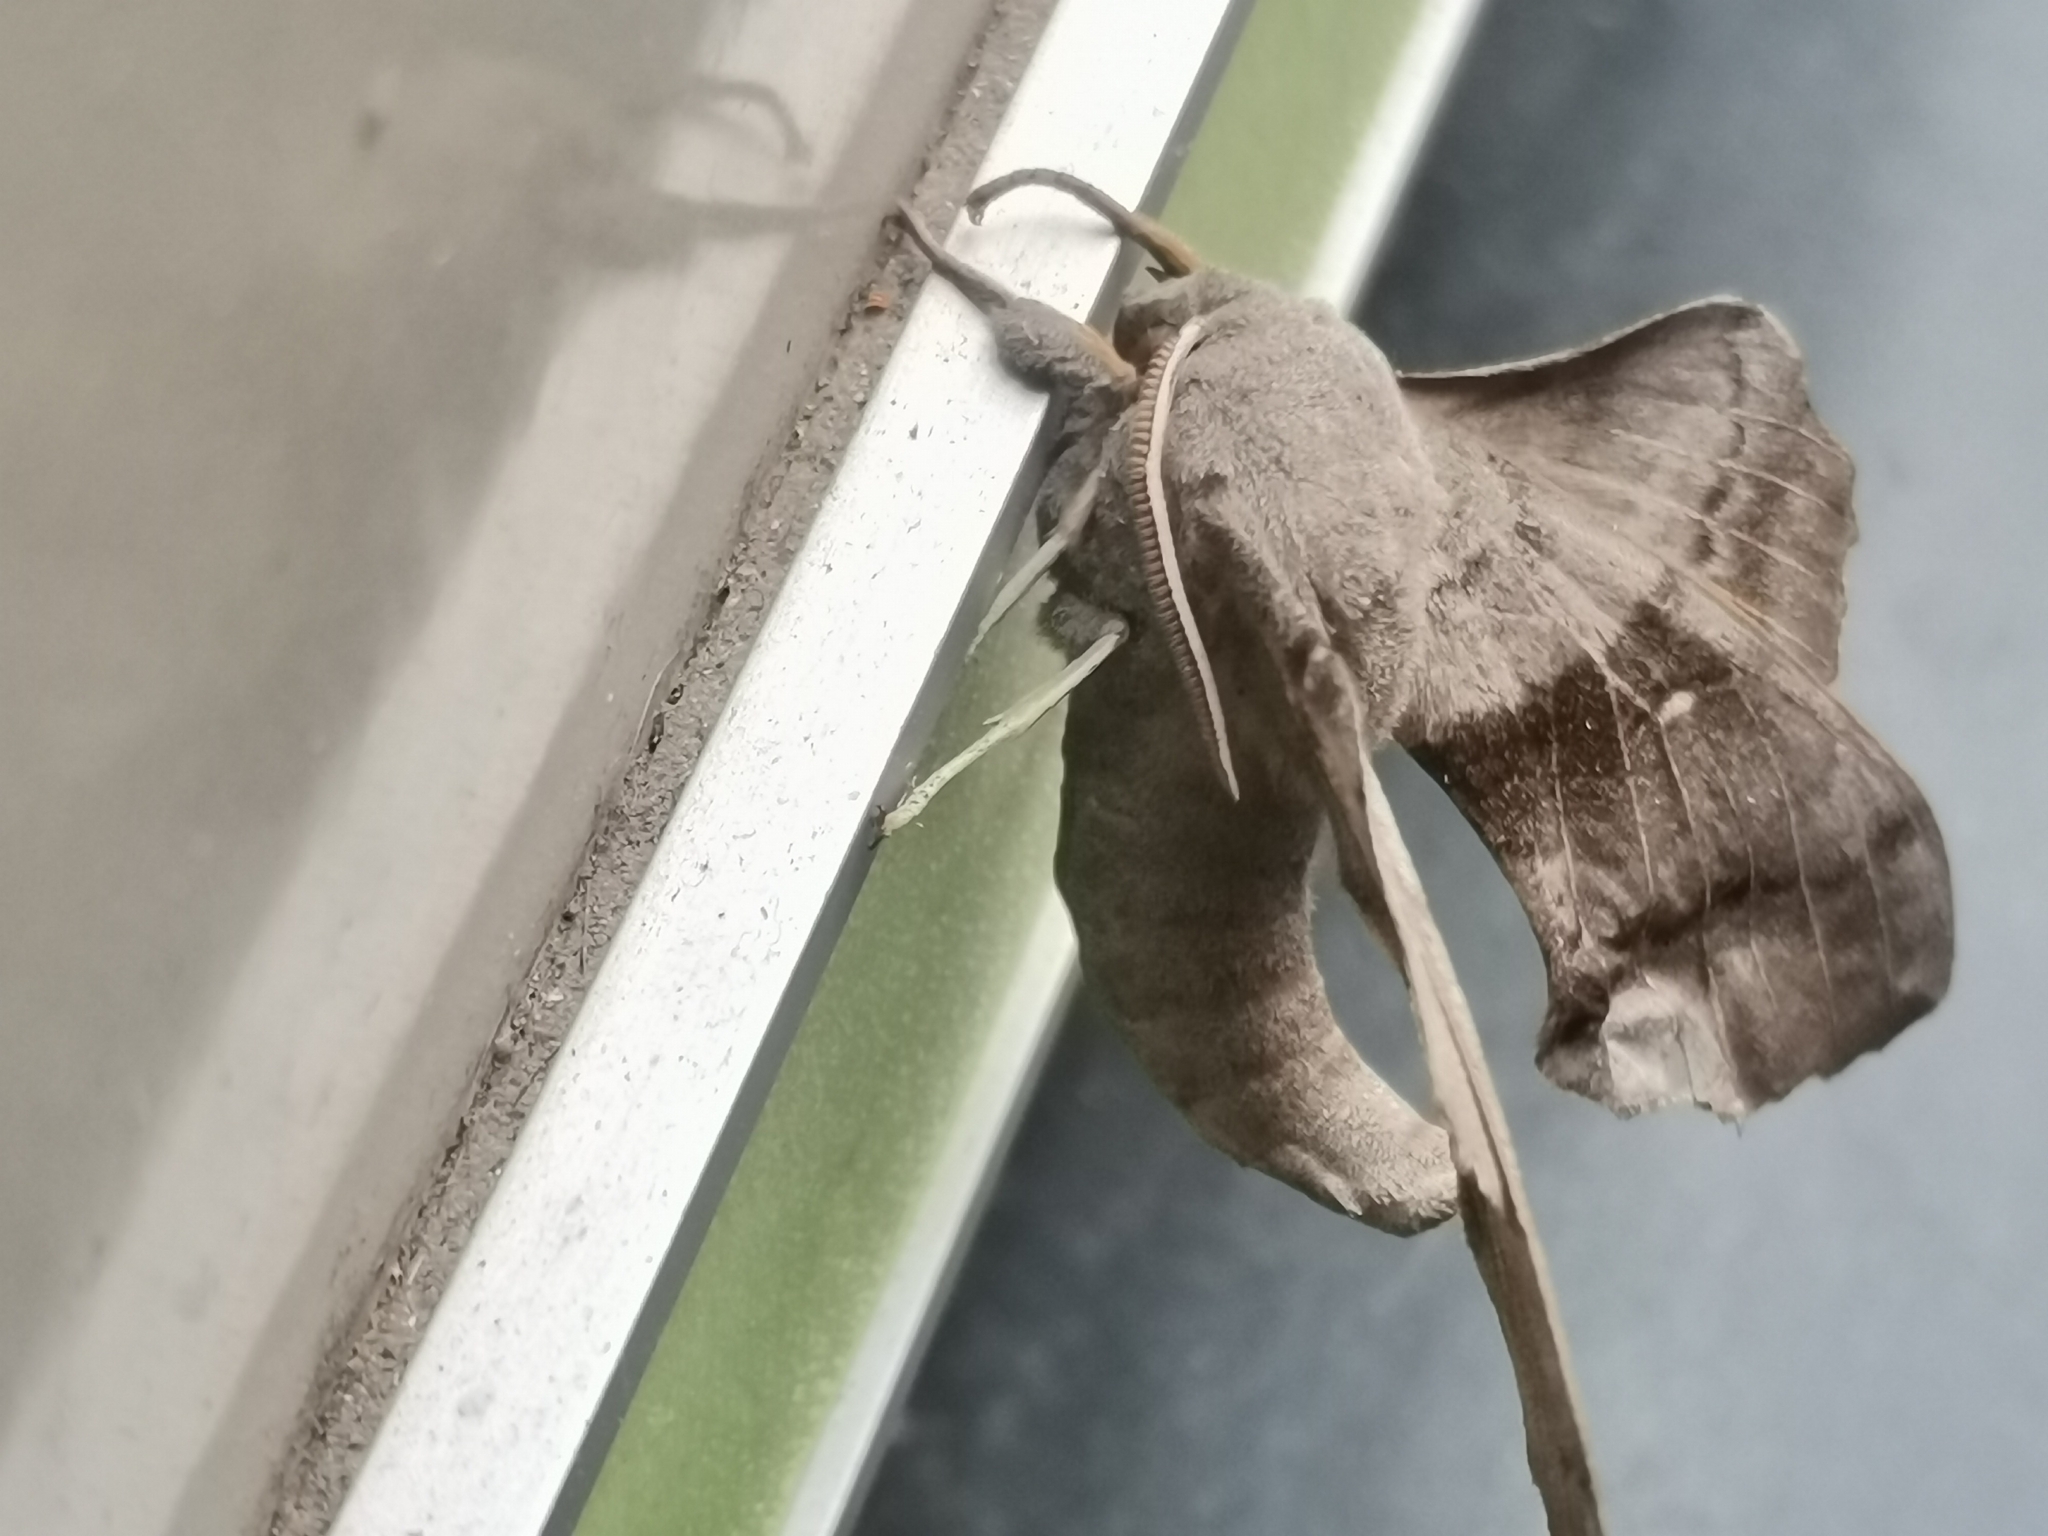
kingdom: Animalia
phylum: Arthropoda
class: Insecta
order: Lepidoptera
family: Sphingidae
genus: Laothoe
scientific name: Laothoe populi
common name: Poplar hawk-moth
